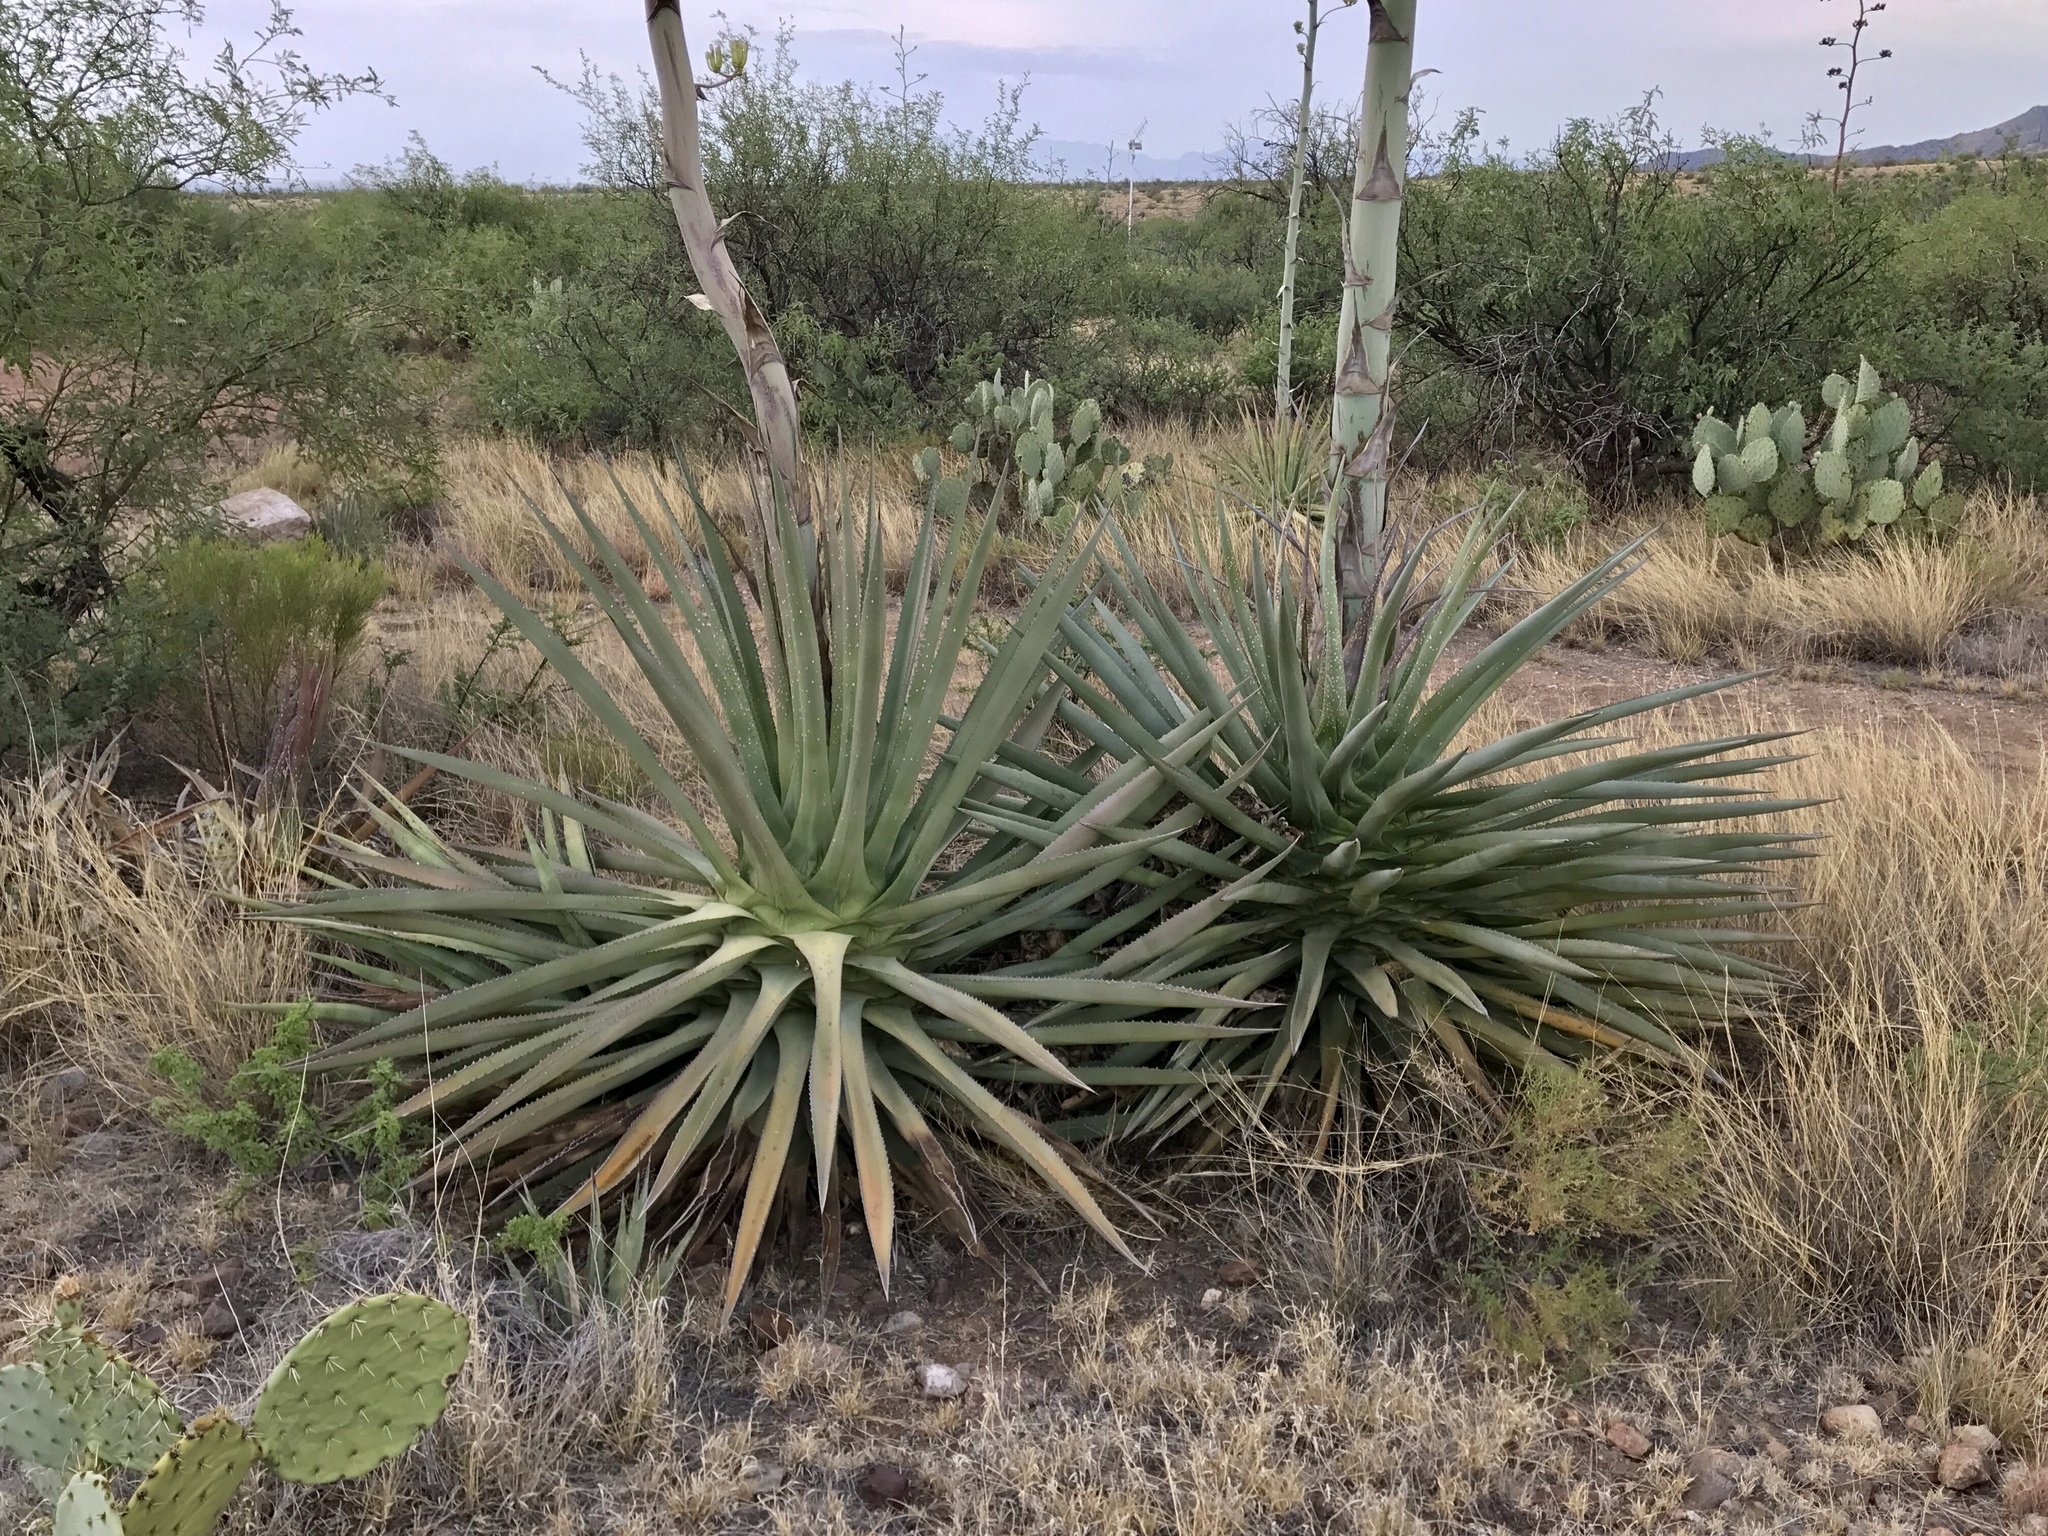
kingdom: Plantae
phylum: Tracheophyta
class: Liliopsida
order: Asparagales
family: Asparagaceae
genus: Agave
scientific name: Agave palmeri
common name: Palmer agave
